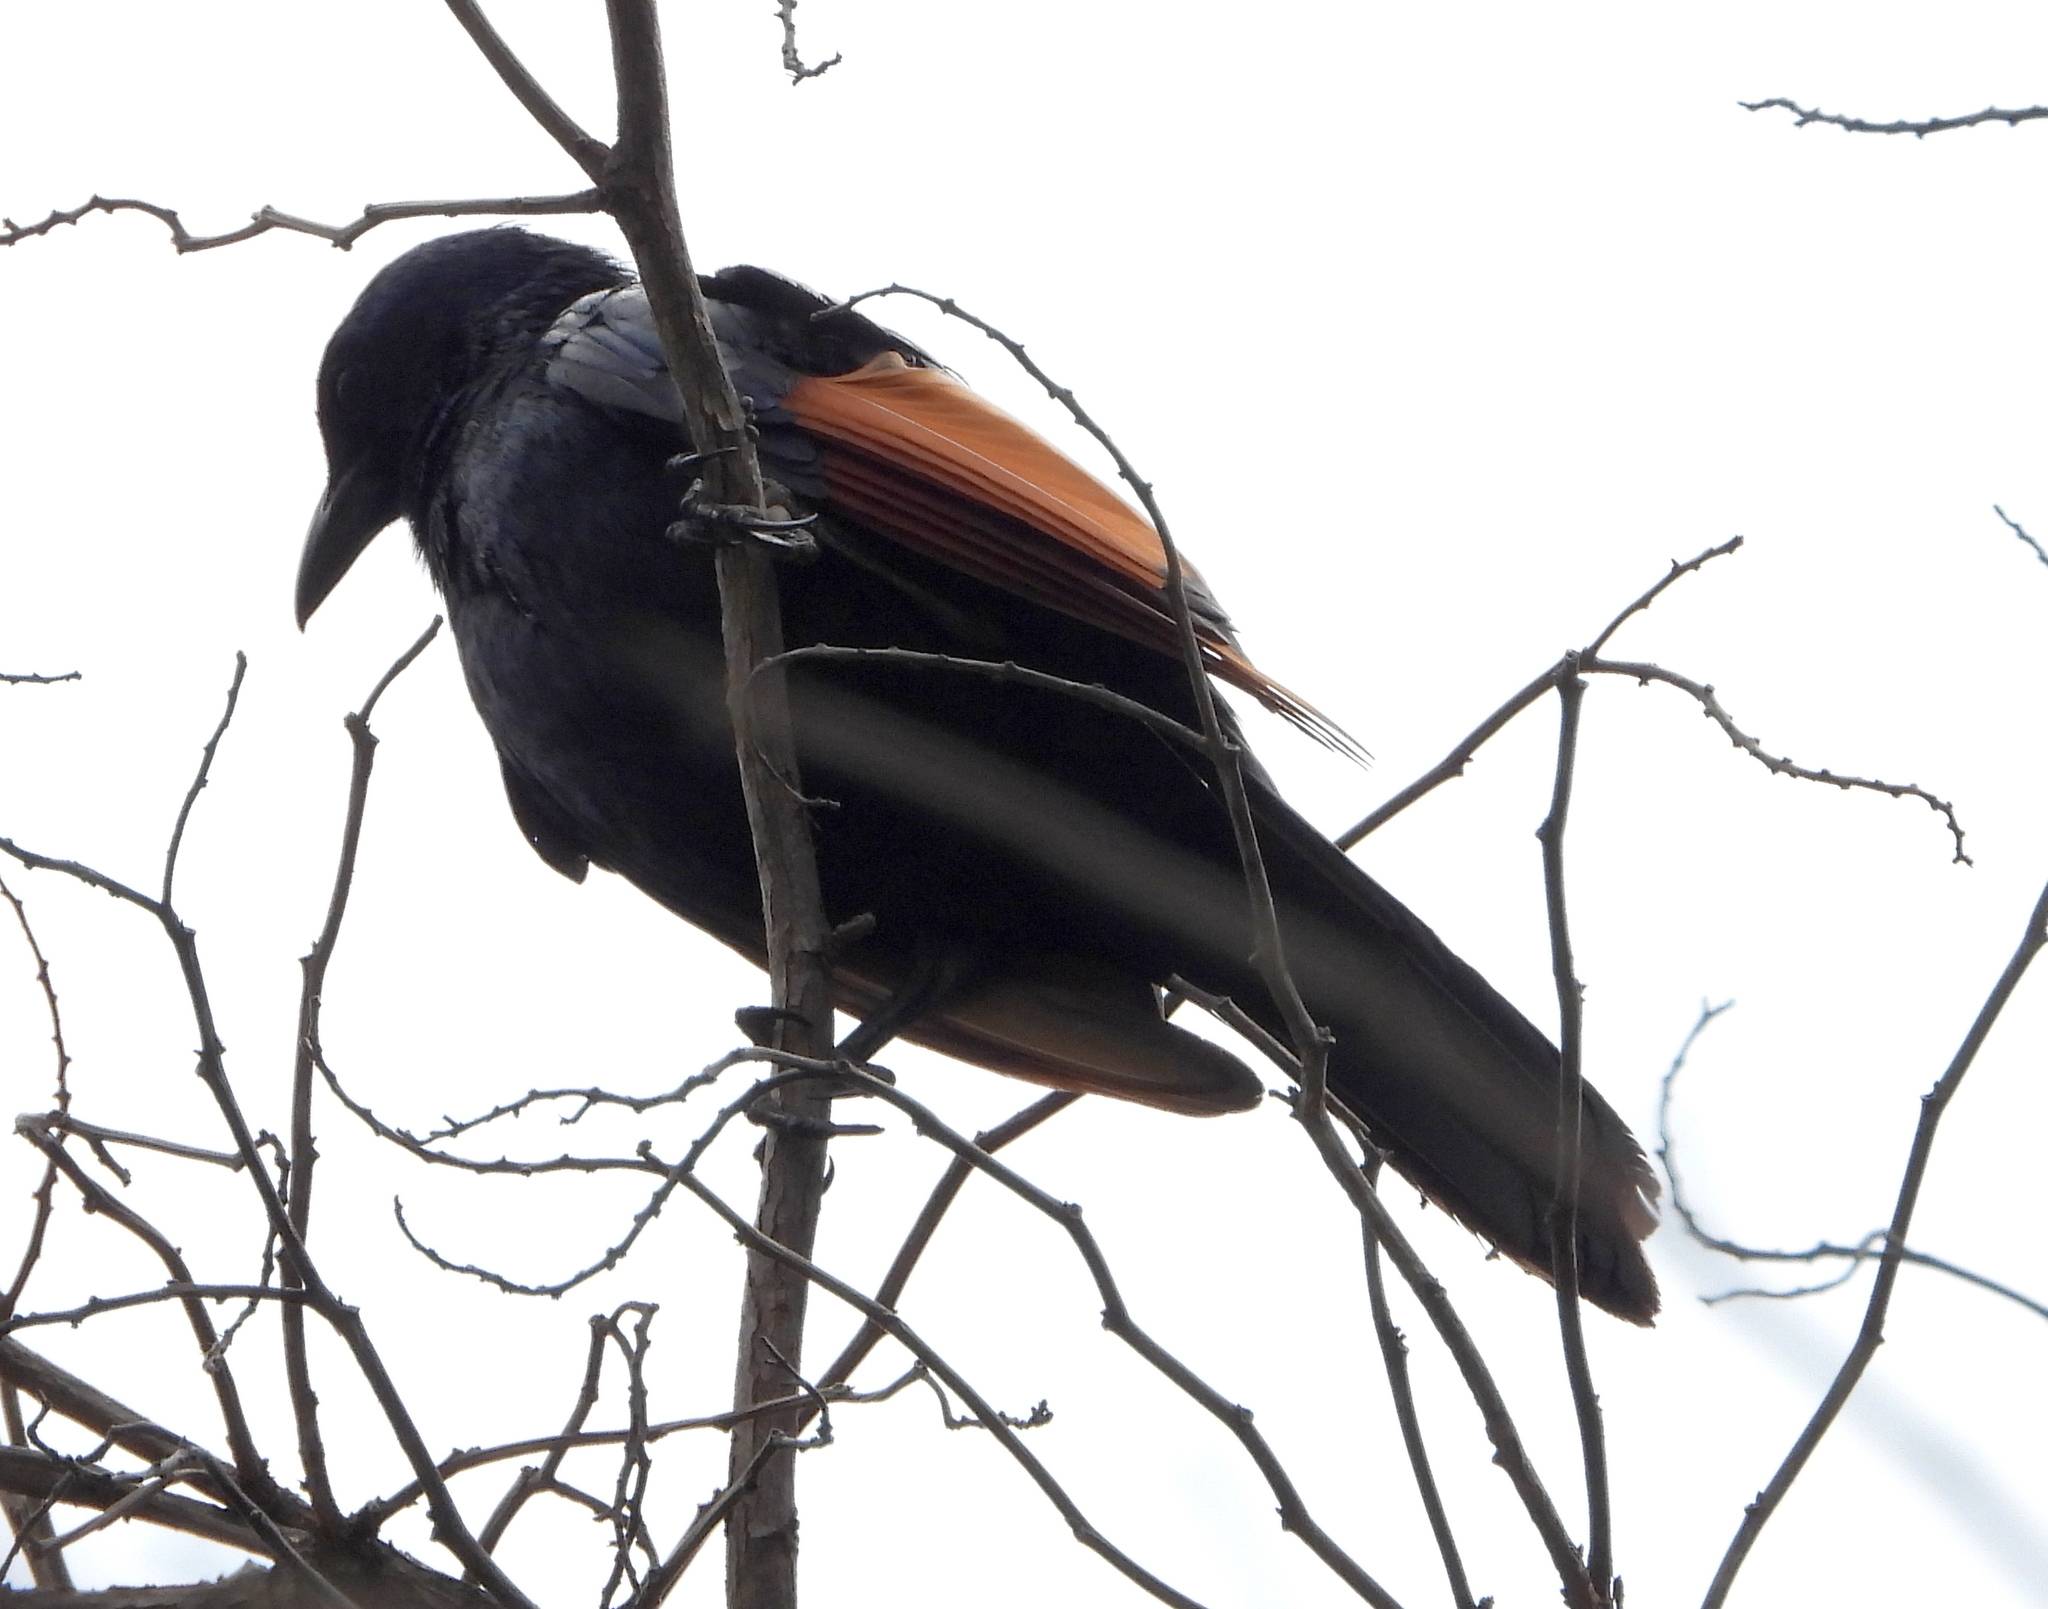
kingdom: Animalia
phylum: Chordata
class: Aves
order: Passeriformes
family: Sturnidae
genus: Onychognathus
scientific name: Onychognathus morio
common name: Red-winged starling
